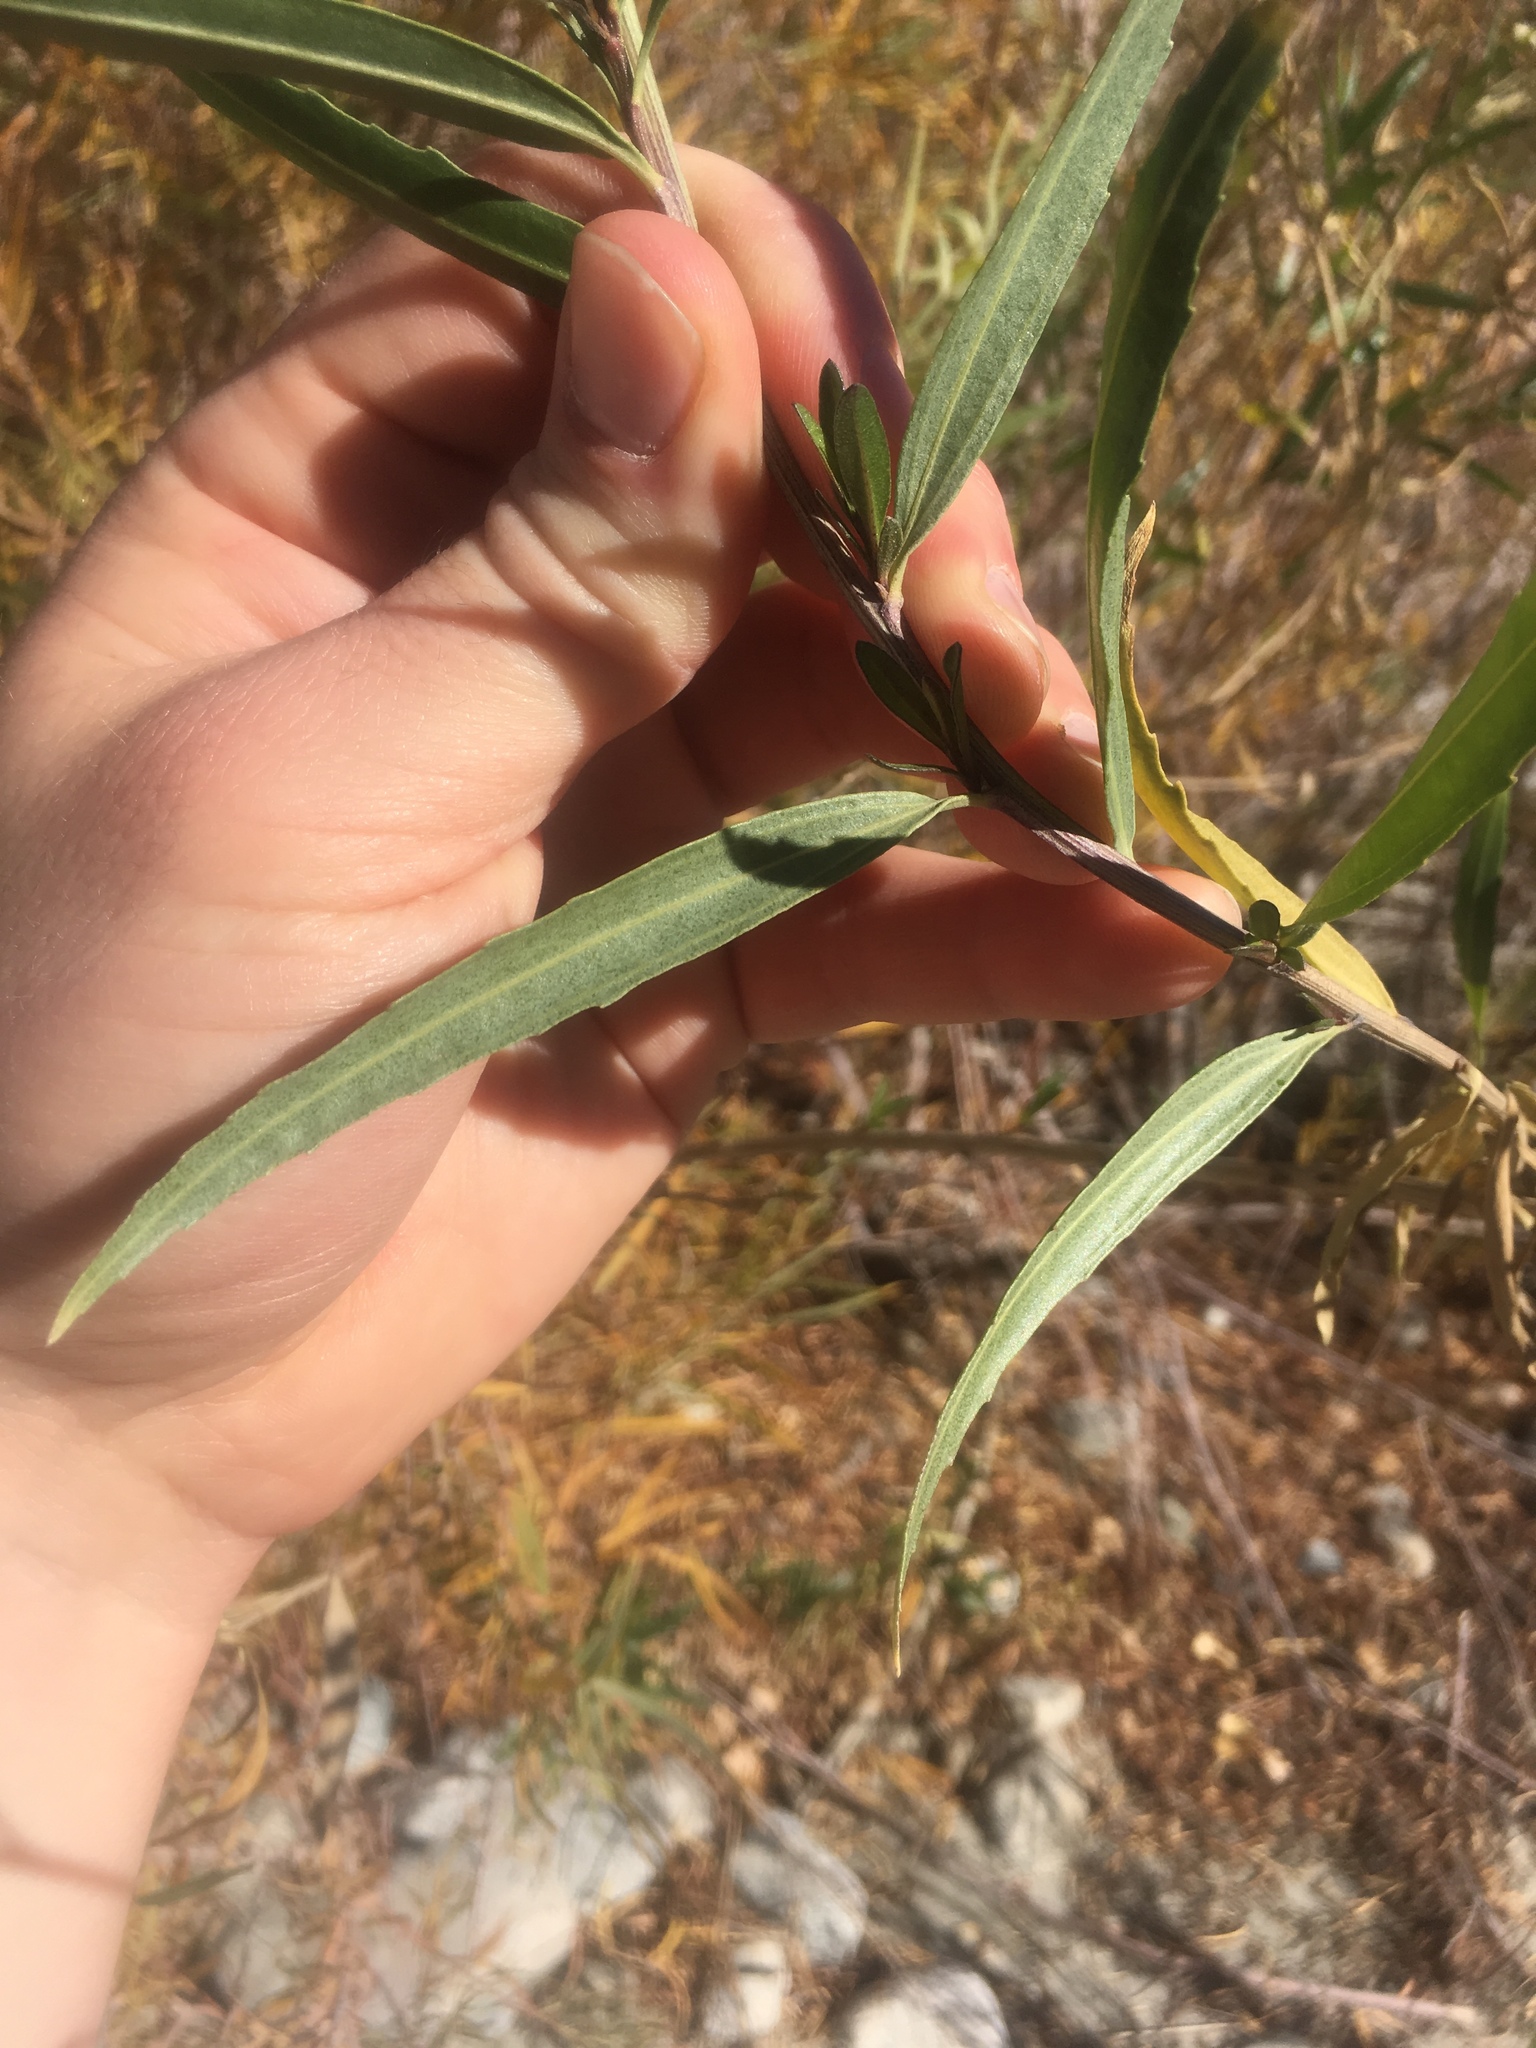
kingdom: Plantae
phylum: Tracheophyta
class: Magnoliopsida
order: Asterales
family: Asteraceae
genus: Baccharis
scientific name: Baccharis salicifolia
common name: Sticky baccharis
